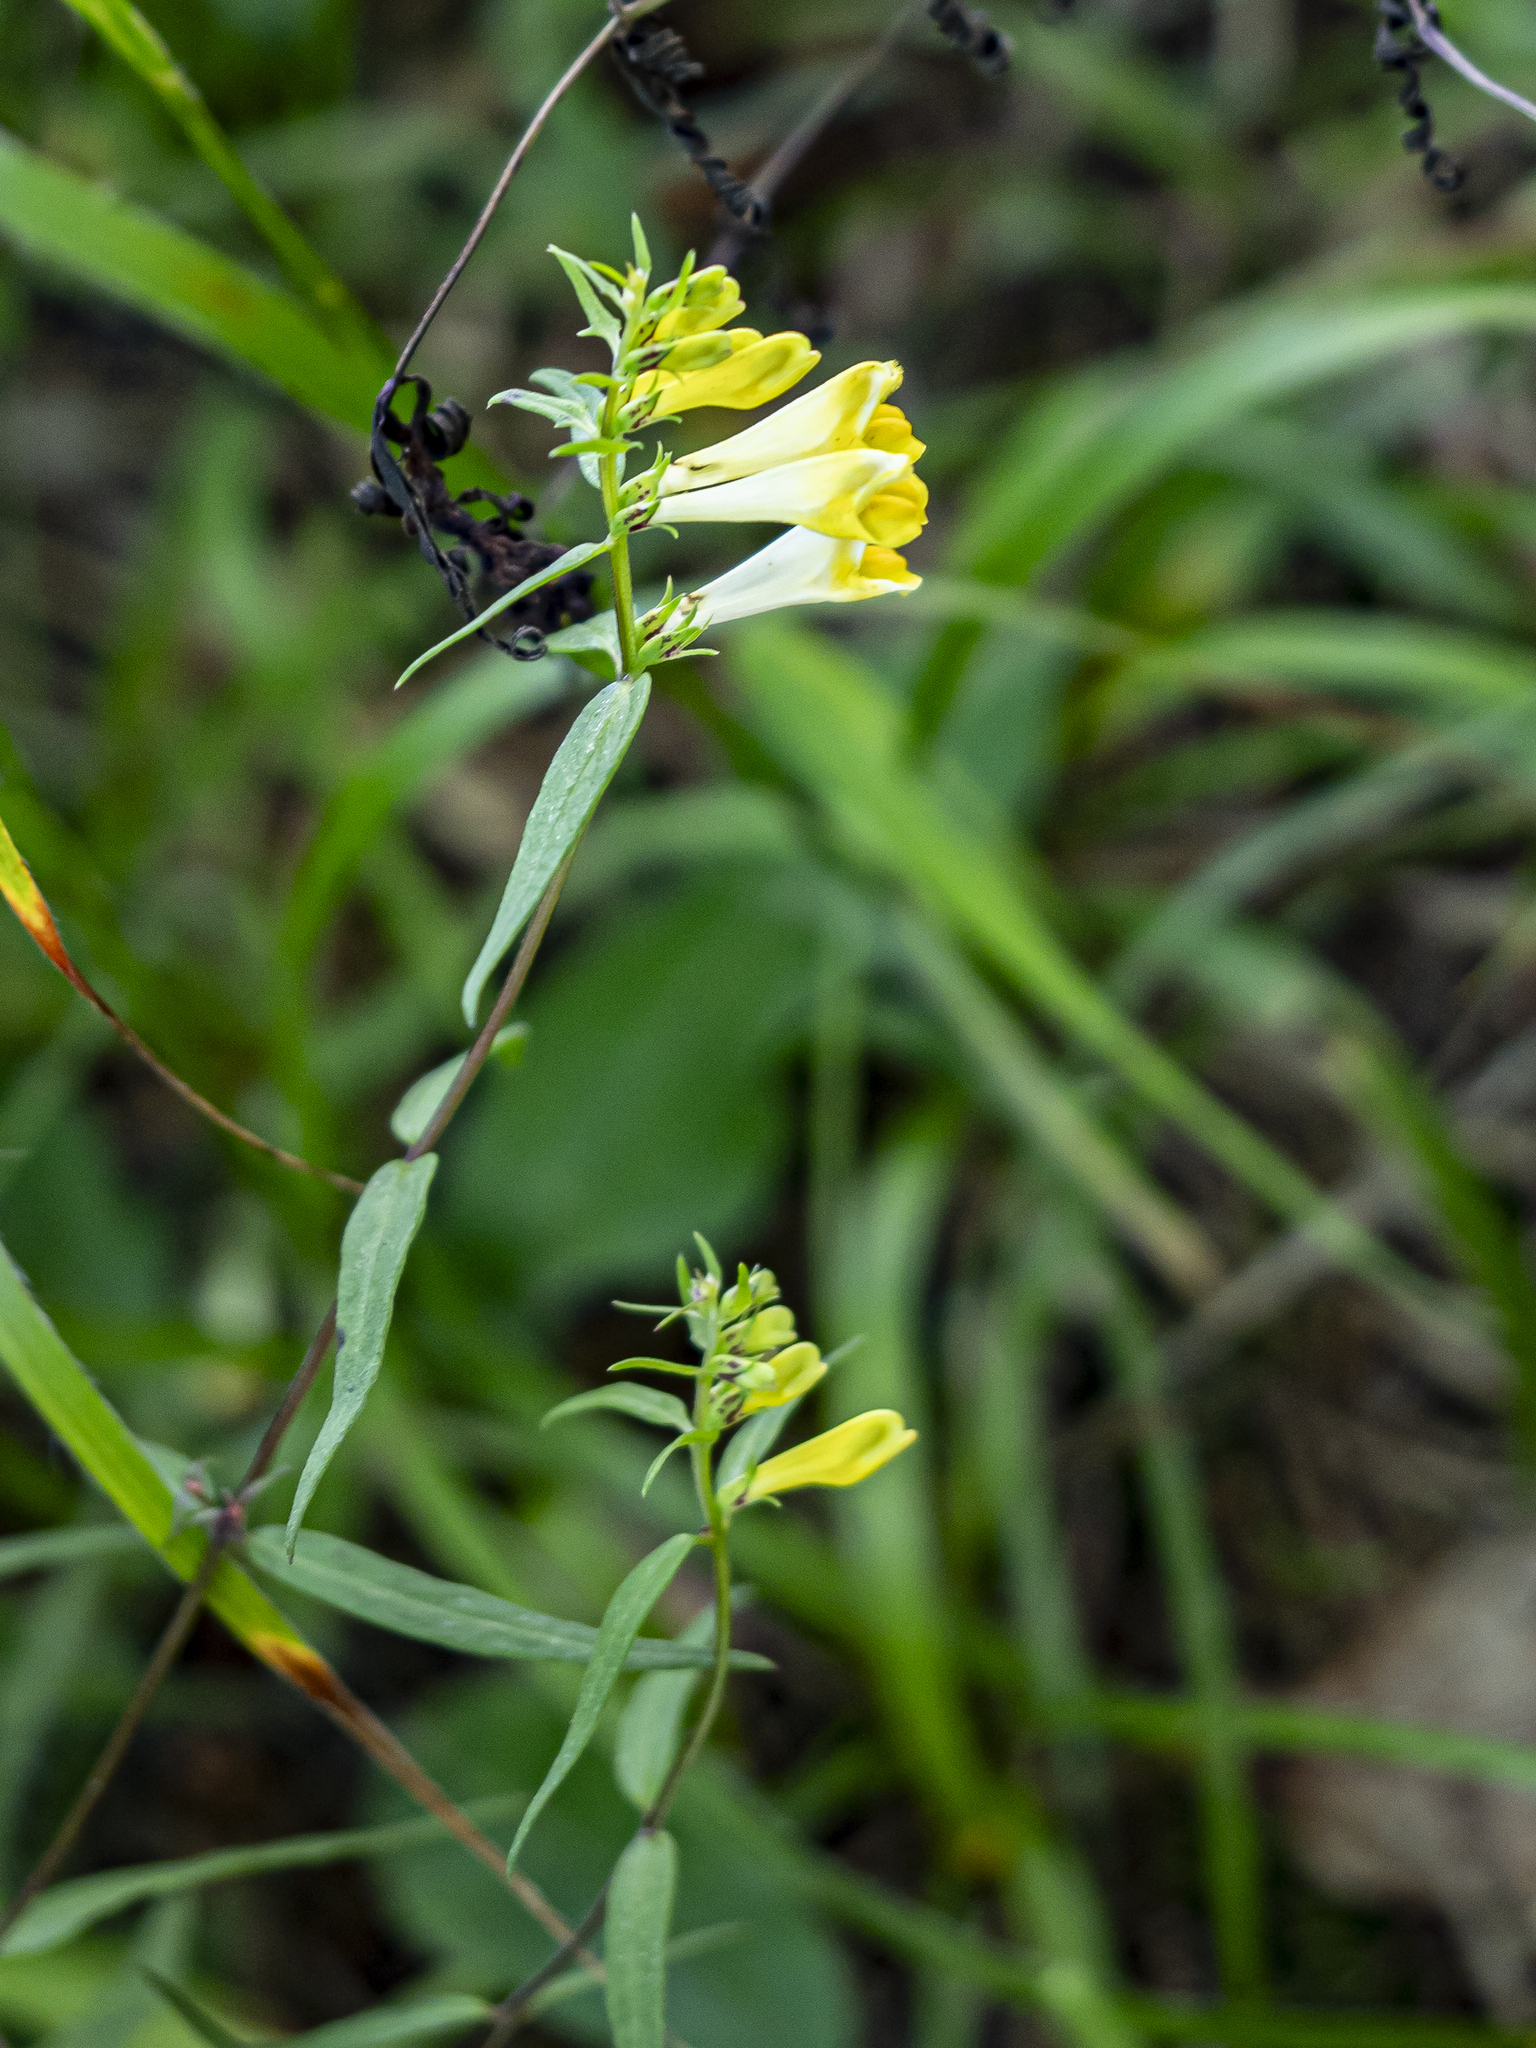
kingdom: Plantae
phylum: Tracheophyta
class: Magnoliopsida
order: Lamiales
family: Orobanchaceae
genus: Melampyrum
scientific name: Melampyrum pratense
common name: Common cow-wheat
